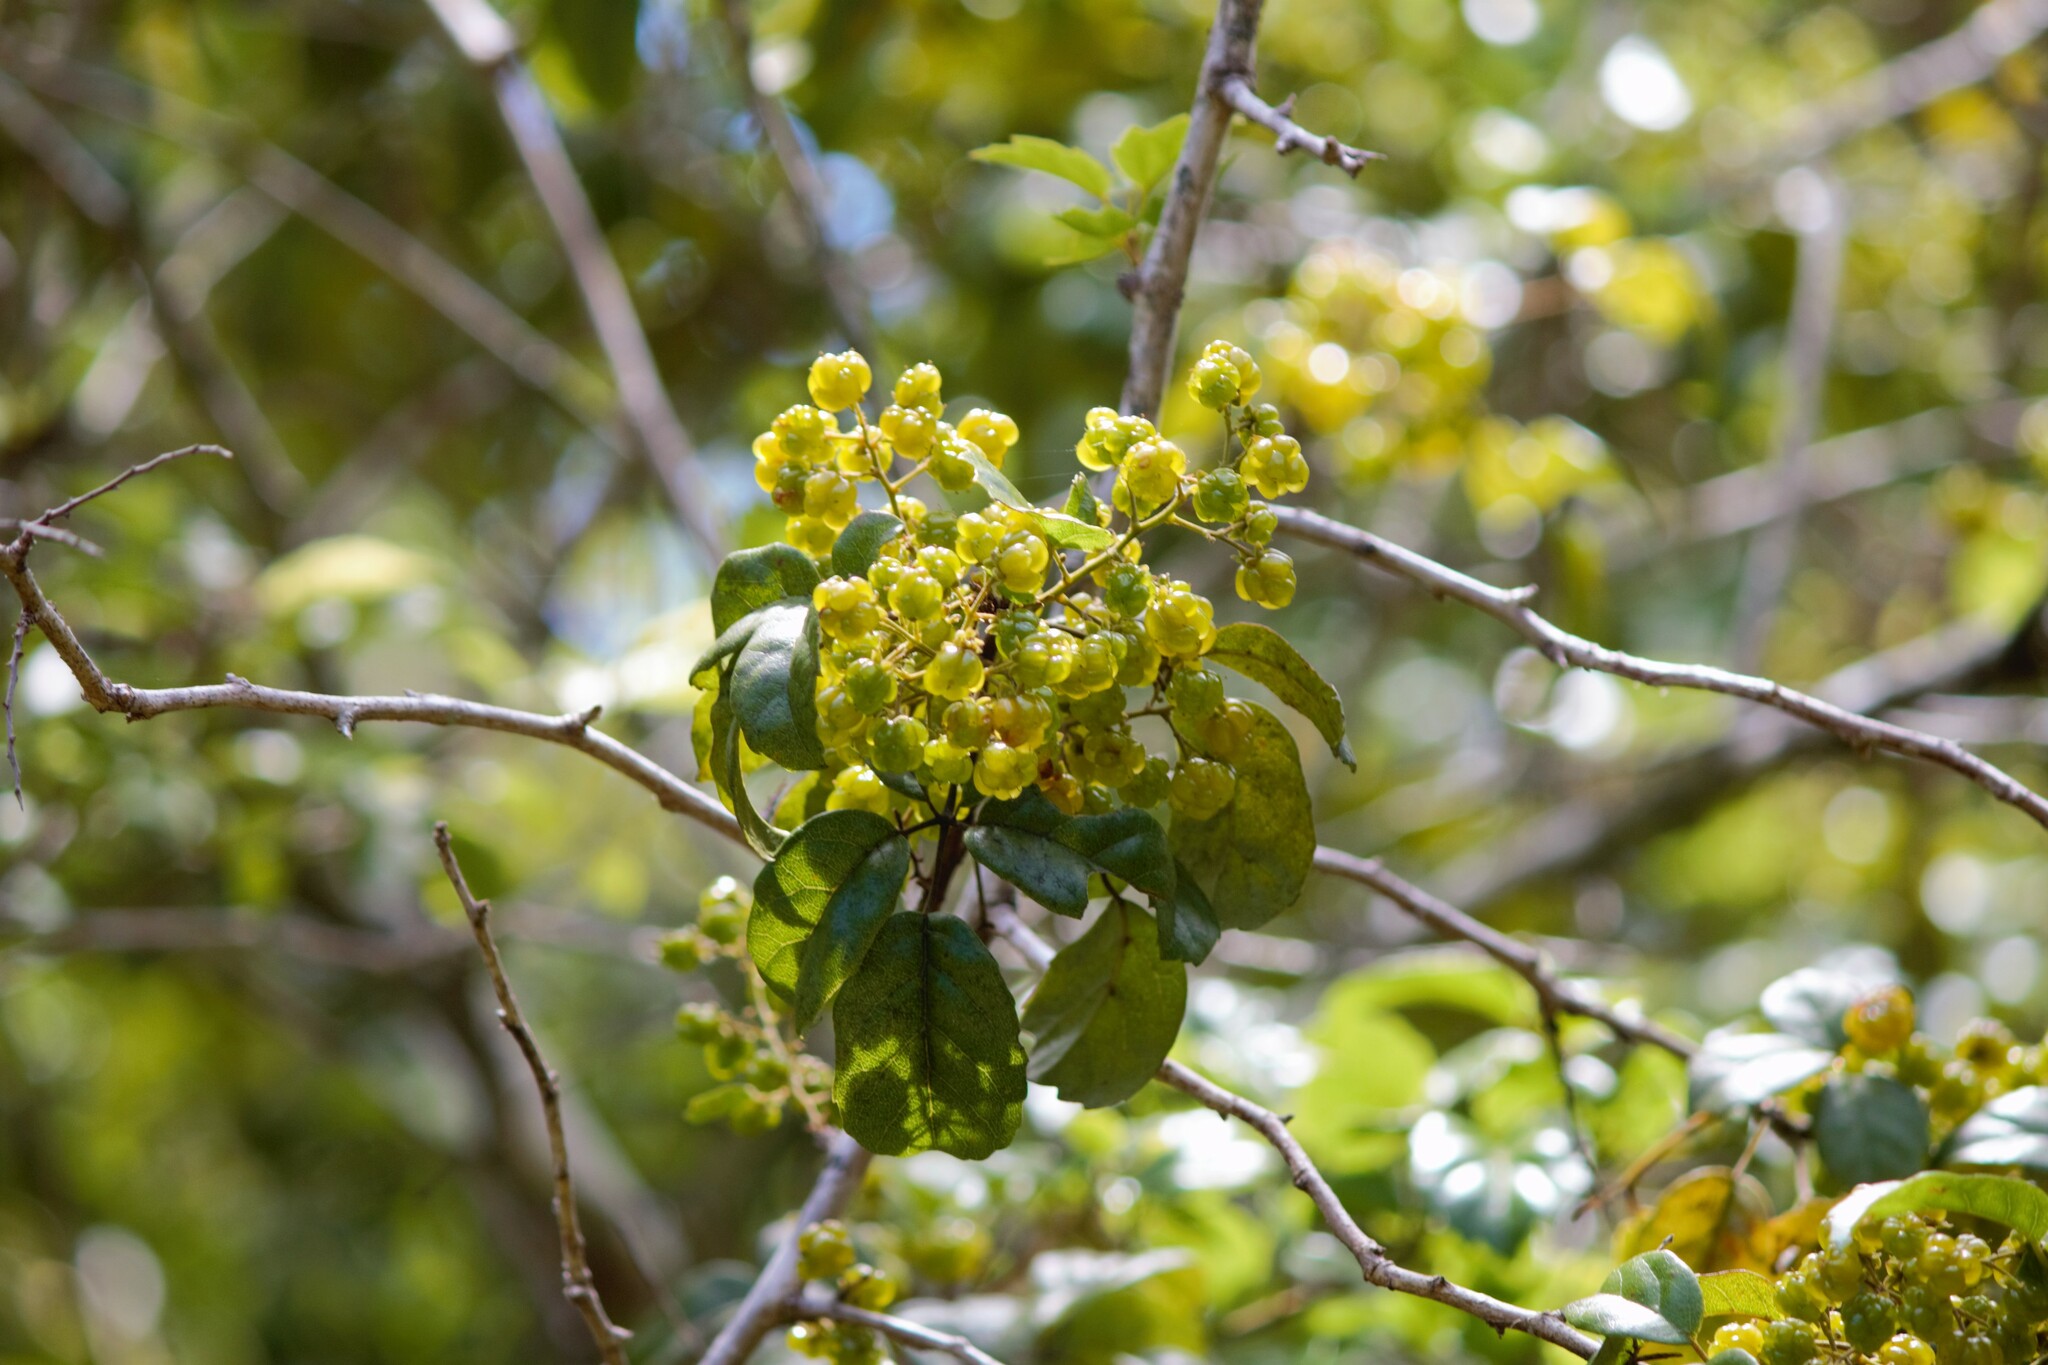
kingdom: Plantae
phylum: Tracheophyta
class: Magnoliopsida
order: Rosales
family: Rosaceae
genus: Rubus
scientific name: Rubus australis
